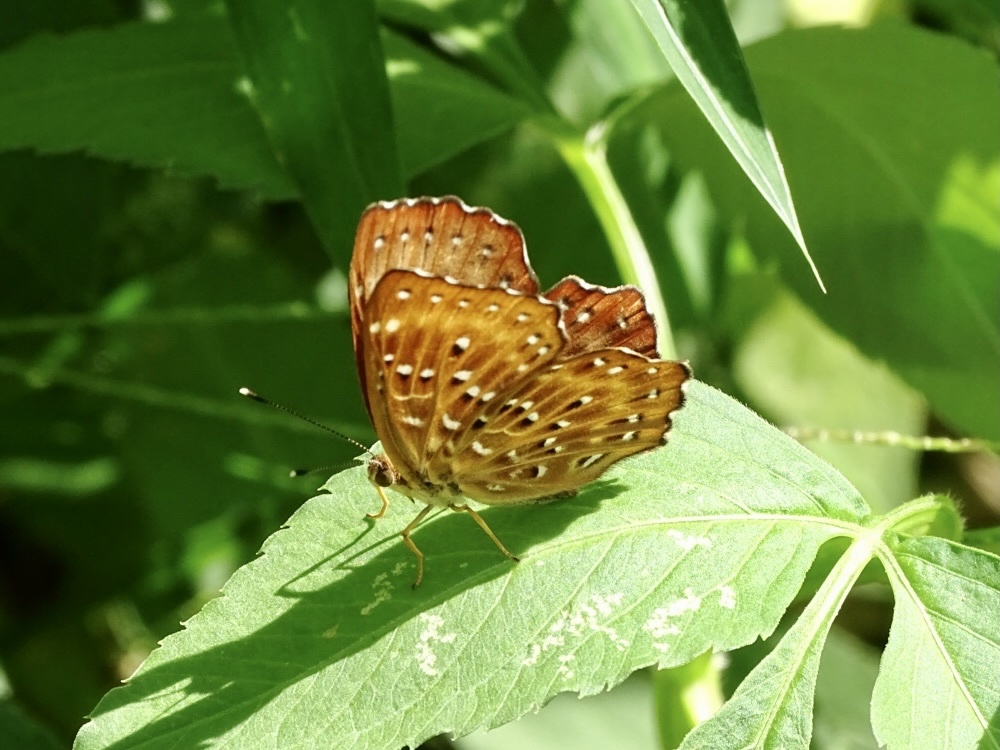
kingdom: Animalia
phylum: Arthropoda
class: Insecta
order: Lepidoptera
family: Riodinidae
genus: Zemeros
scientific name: Zemeros flegyas
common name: Punchinello
